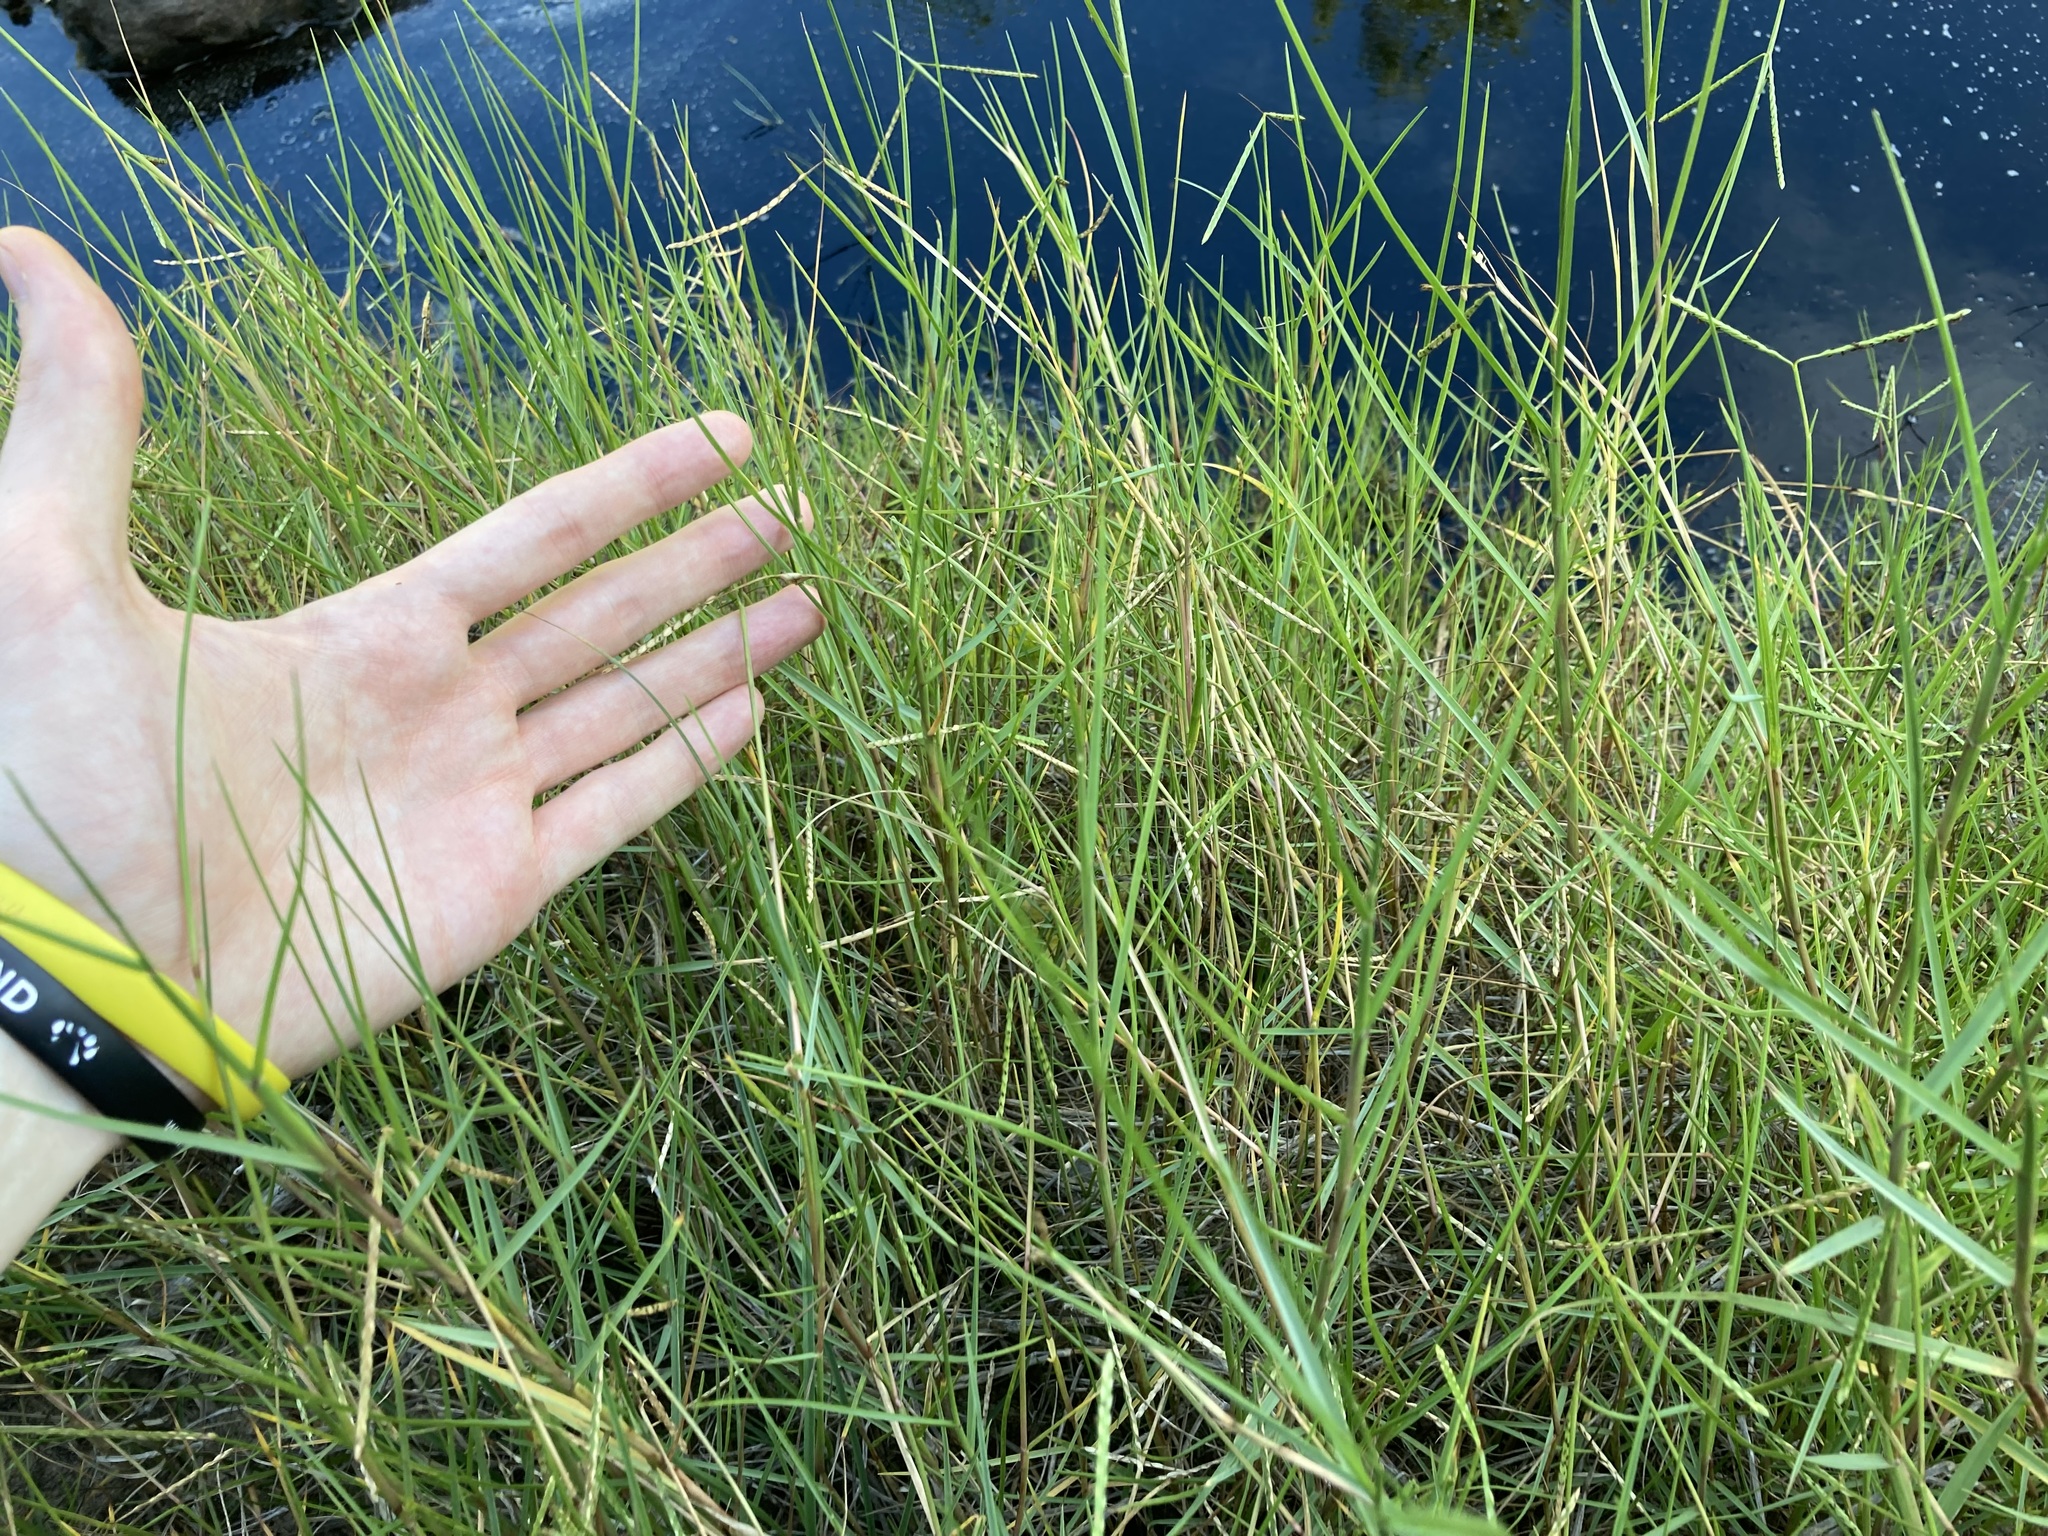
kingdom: Plantae
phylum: Tracheophyta
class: Liliopsida
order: Poales
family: Poaceae
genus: Paspalum
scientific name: Paspalum vaginatum
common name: Seashore paspalum
